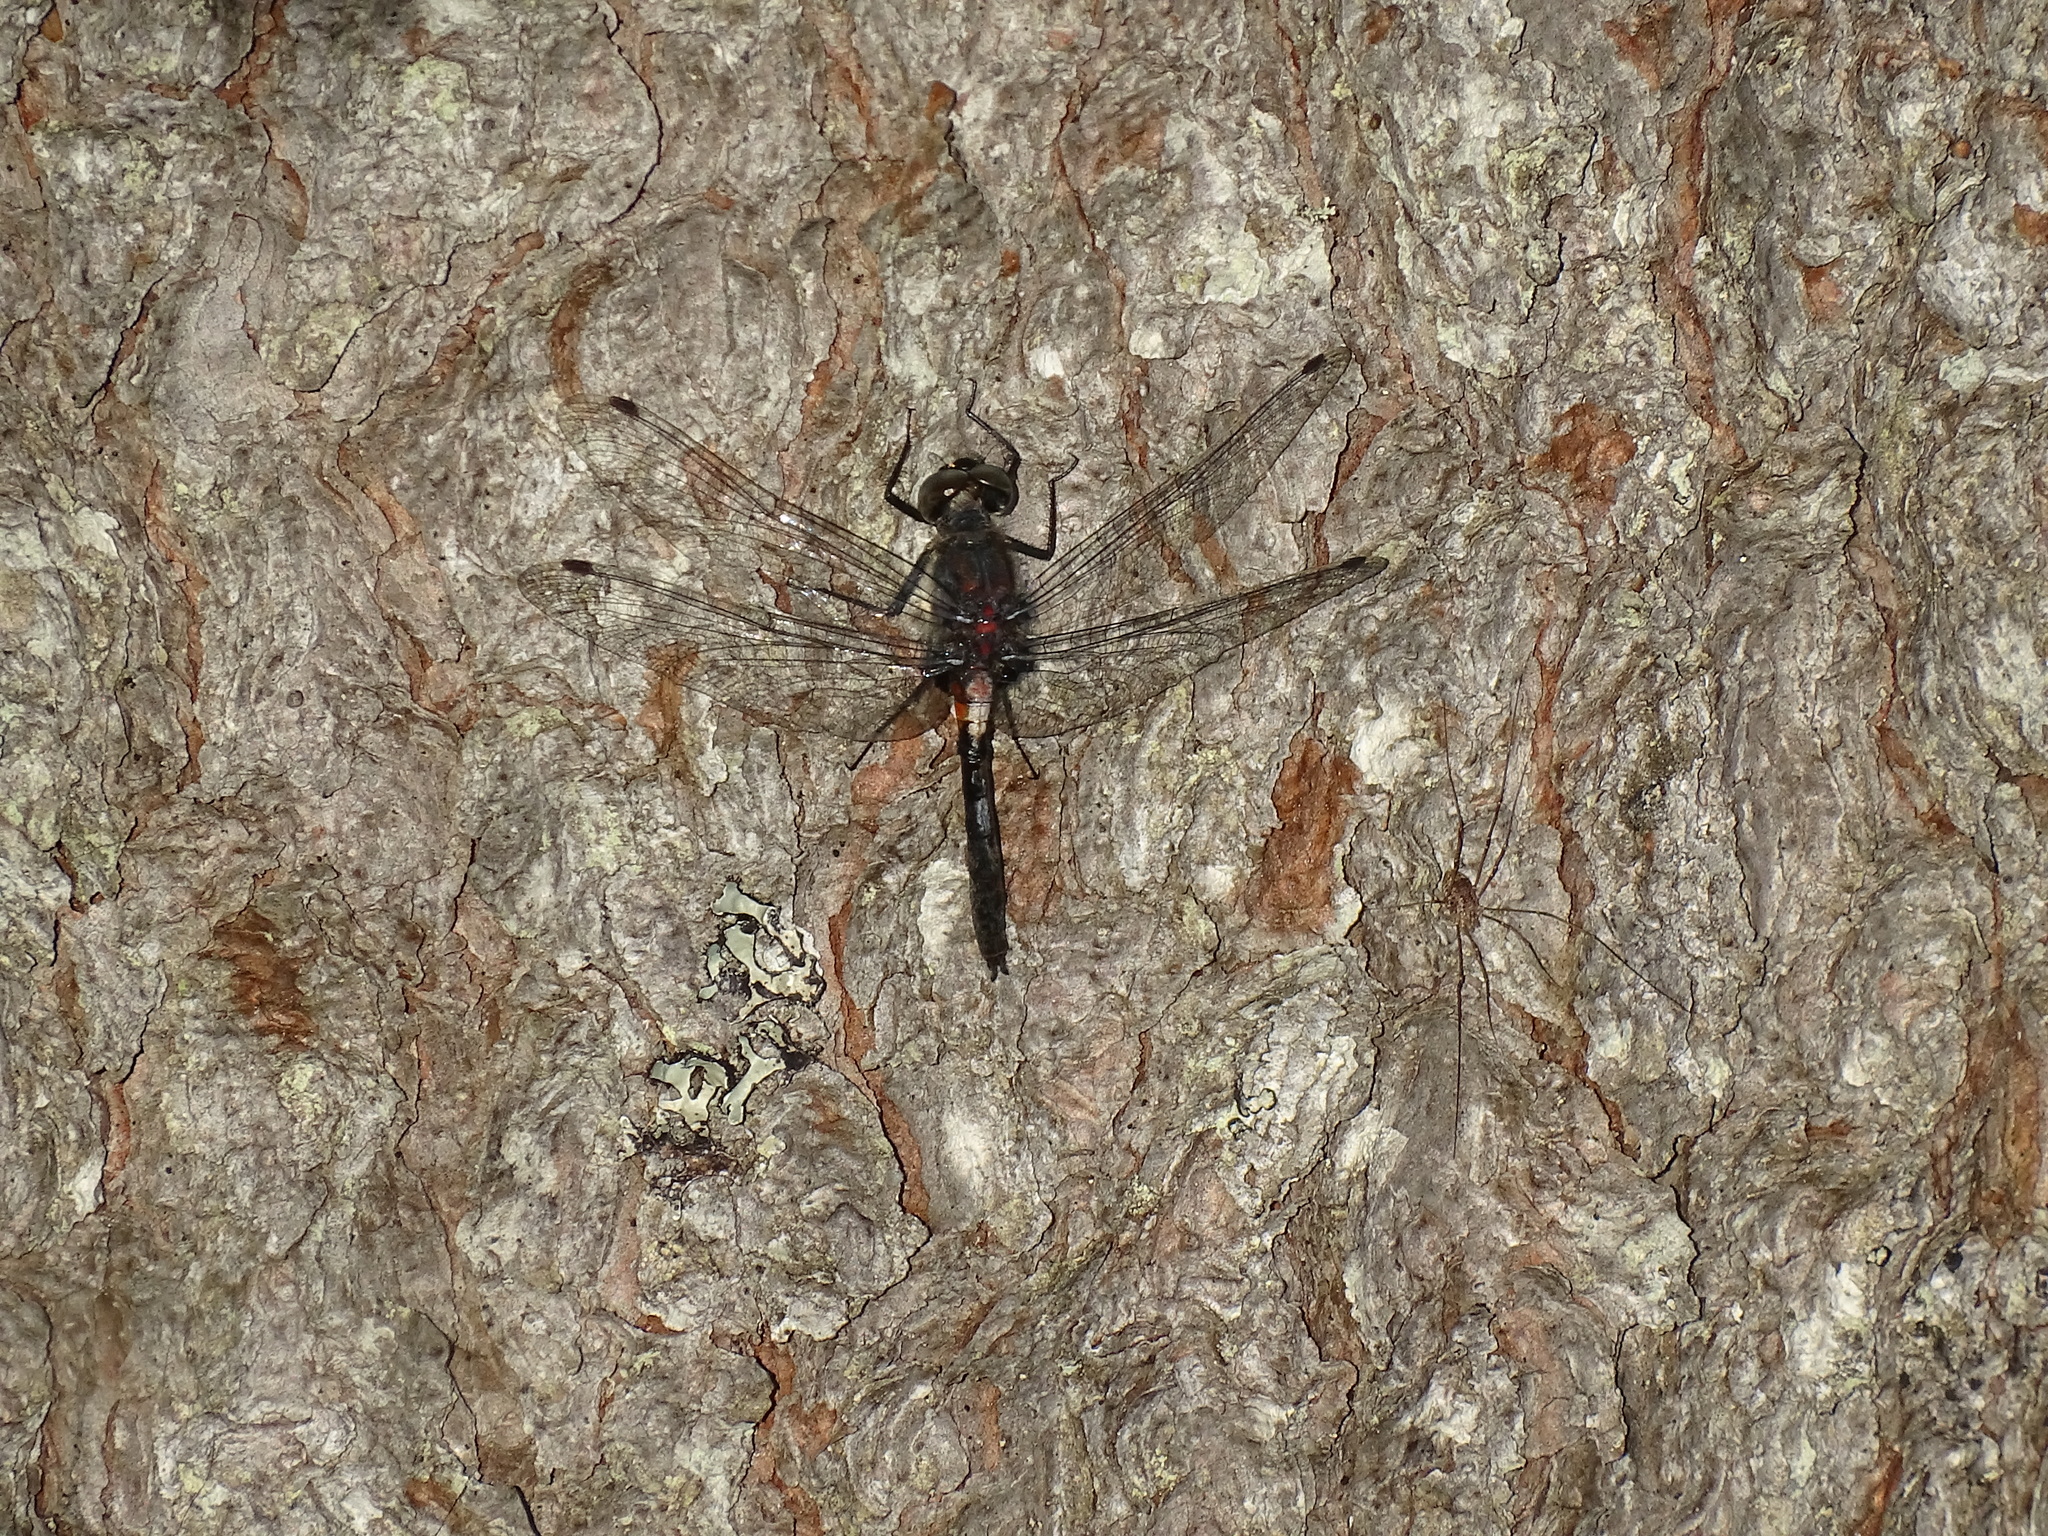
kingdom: Animalia
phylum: Arthropoda
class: Insecta
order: Odonata
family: Libellulidae
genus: Leucorrhinia
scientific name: Leucorrhinia proxima
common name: Belted whiteface
